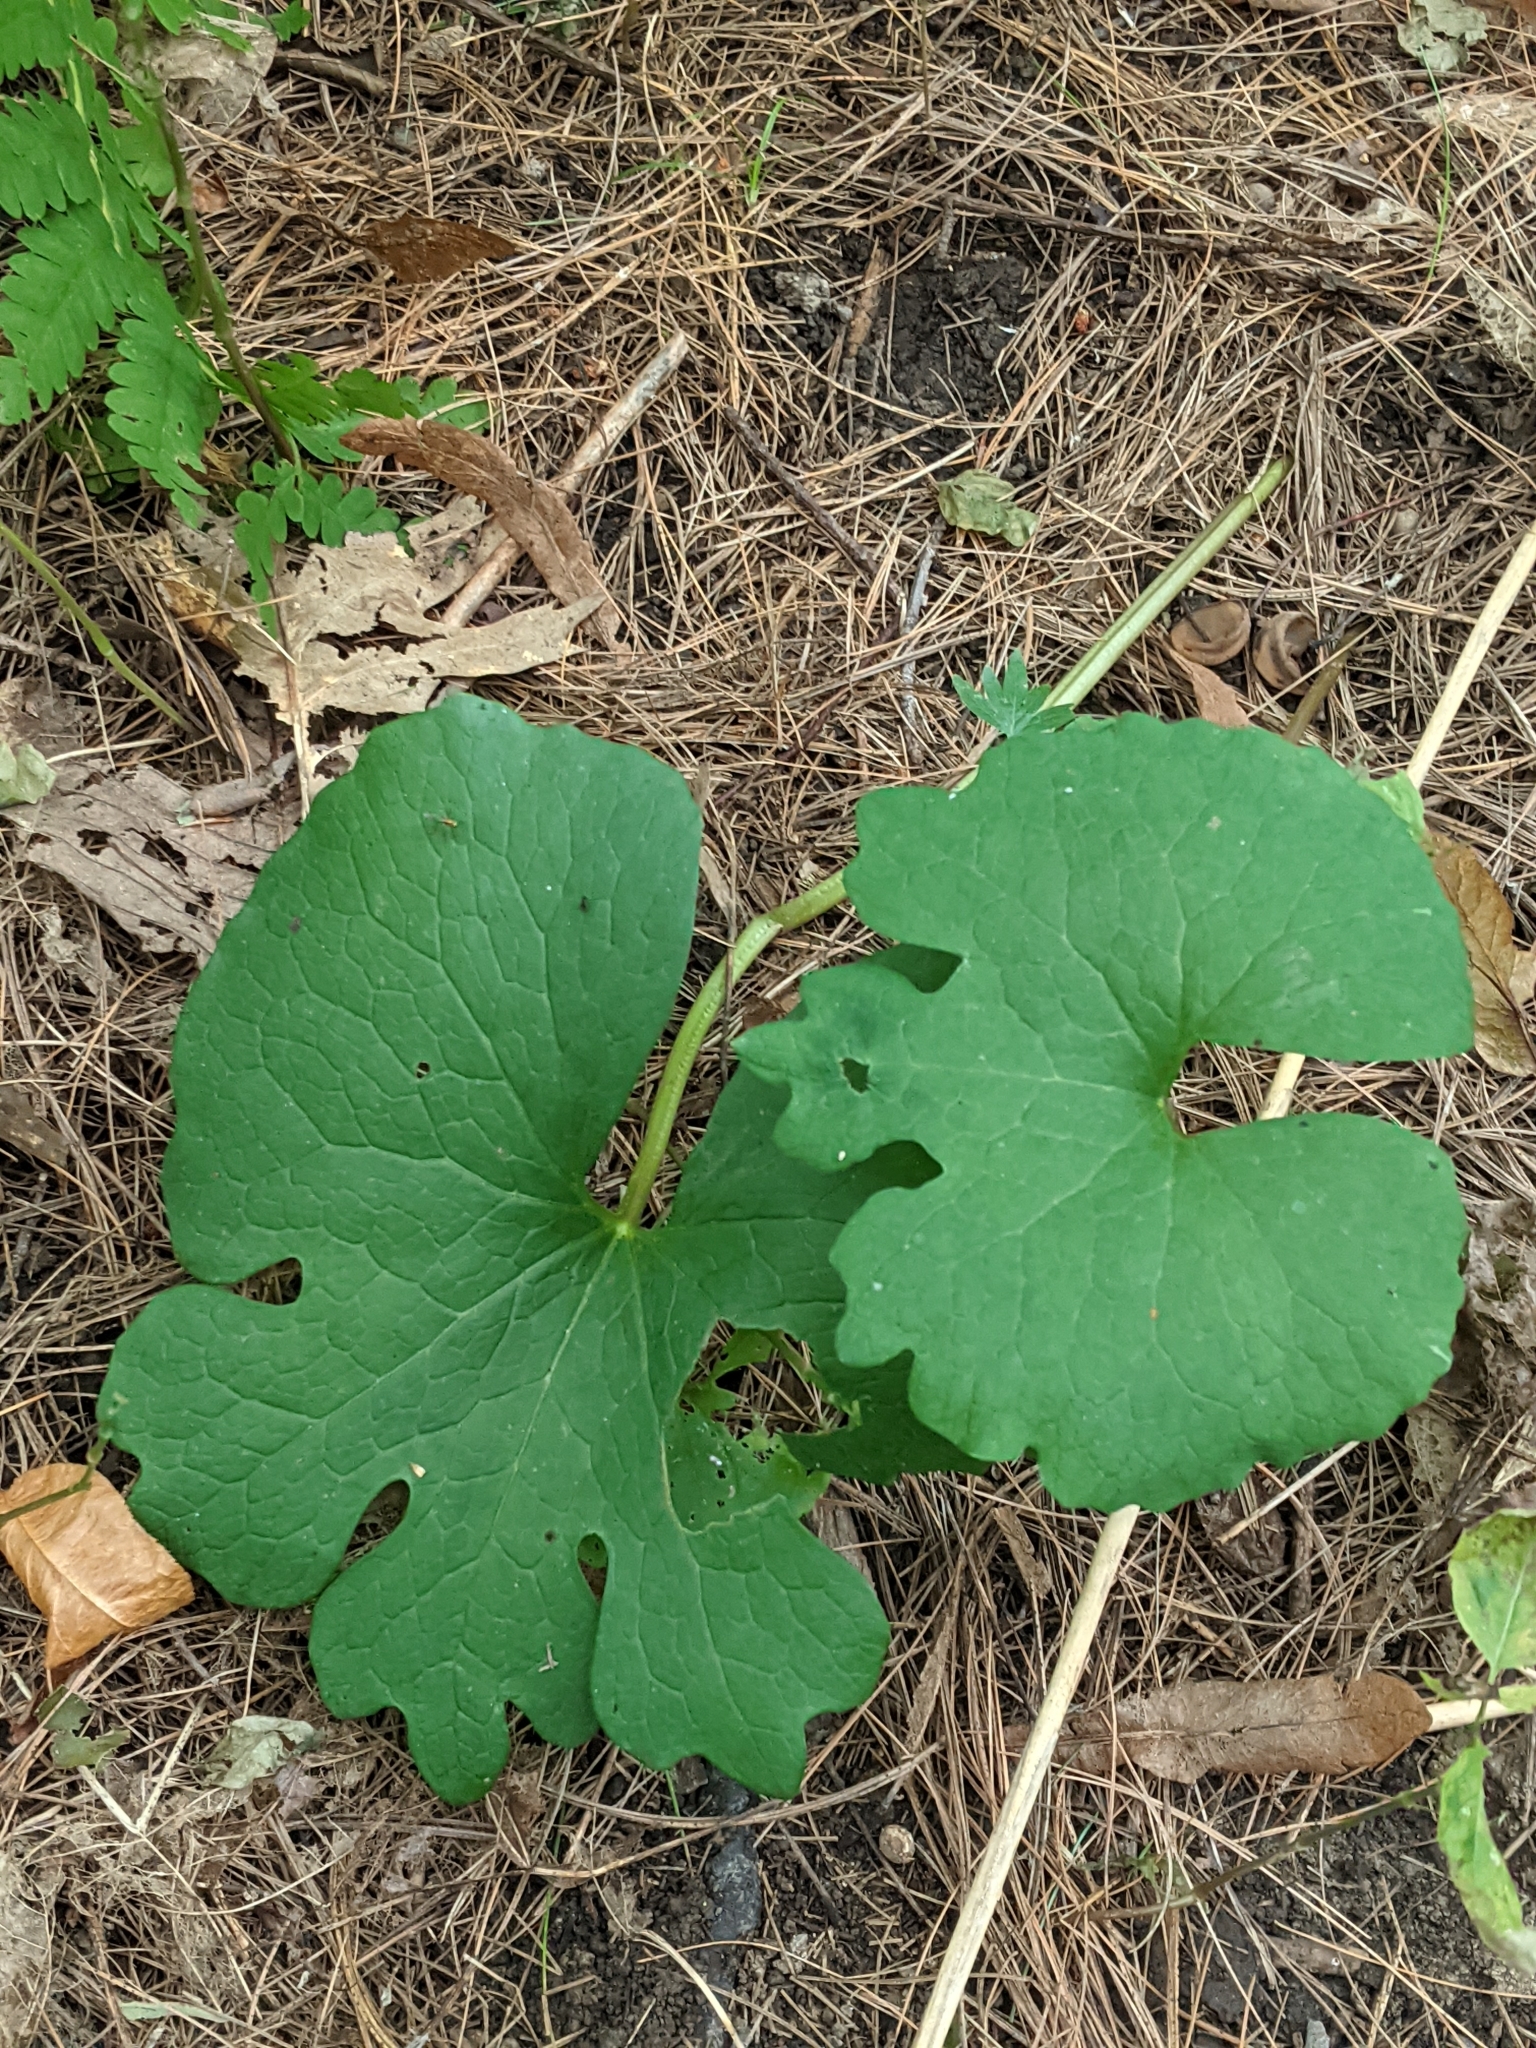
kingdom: Plantae
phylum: Tracheophyta
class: Magnoliopsida
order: Ranunculales
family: Papaveraceae
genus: Sanguinaria
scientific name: Sanguinaria canadensis
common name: Bloodroot
